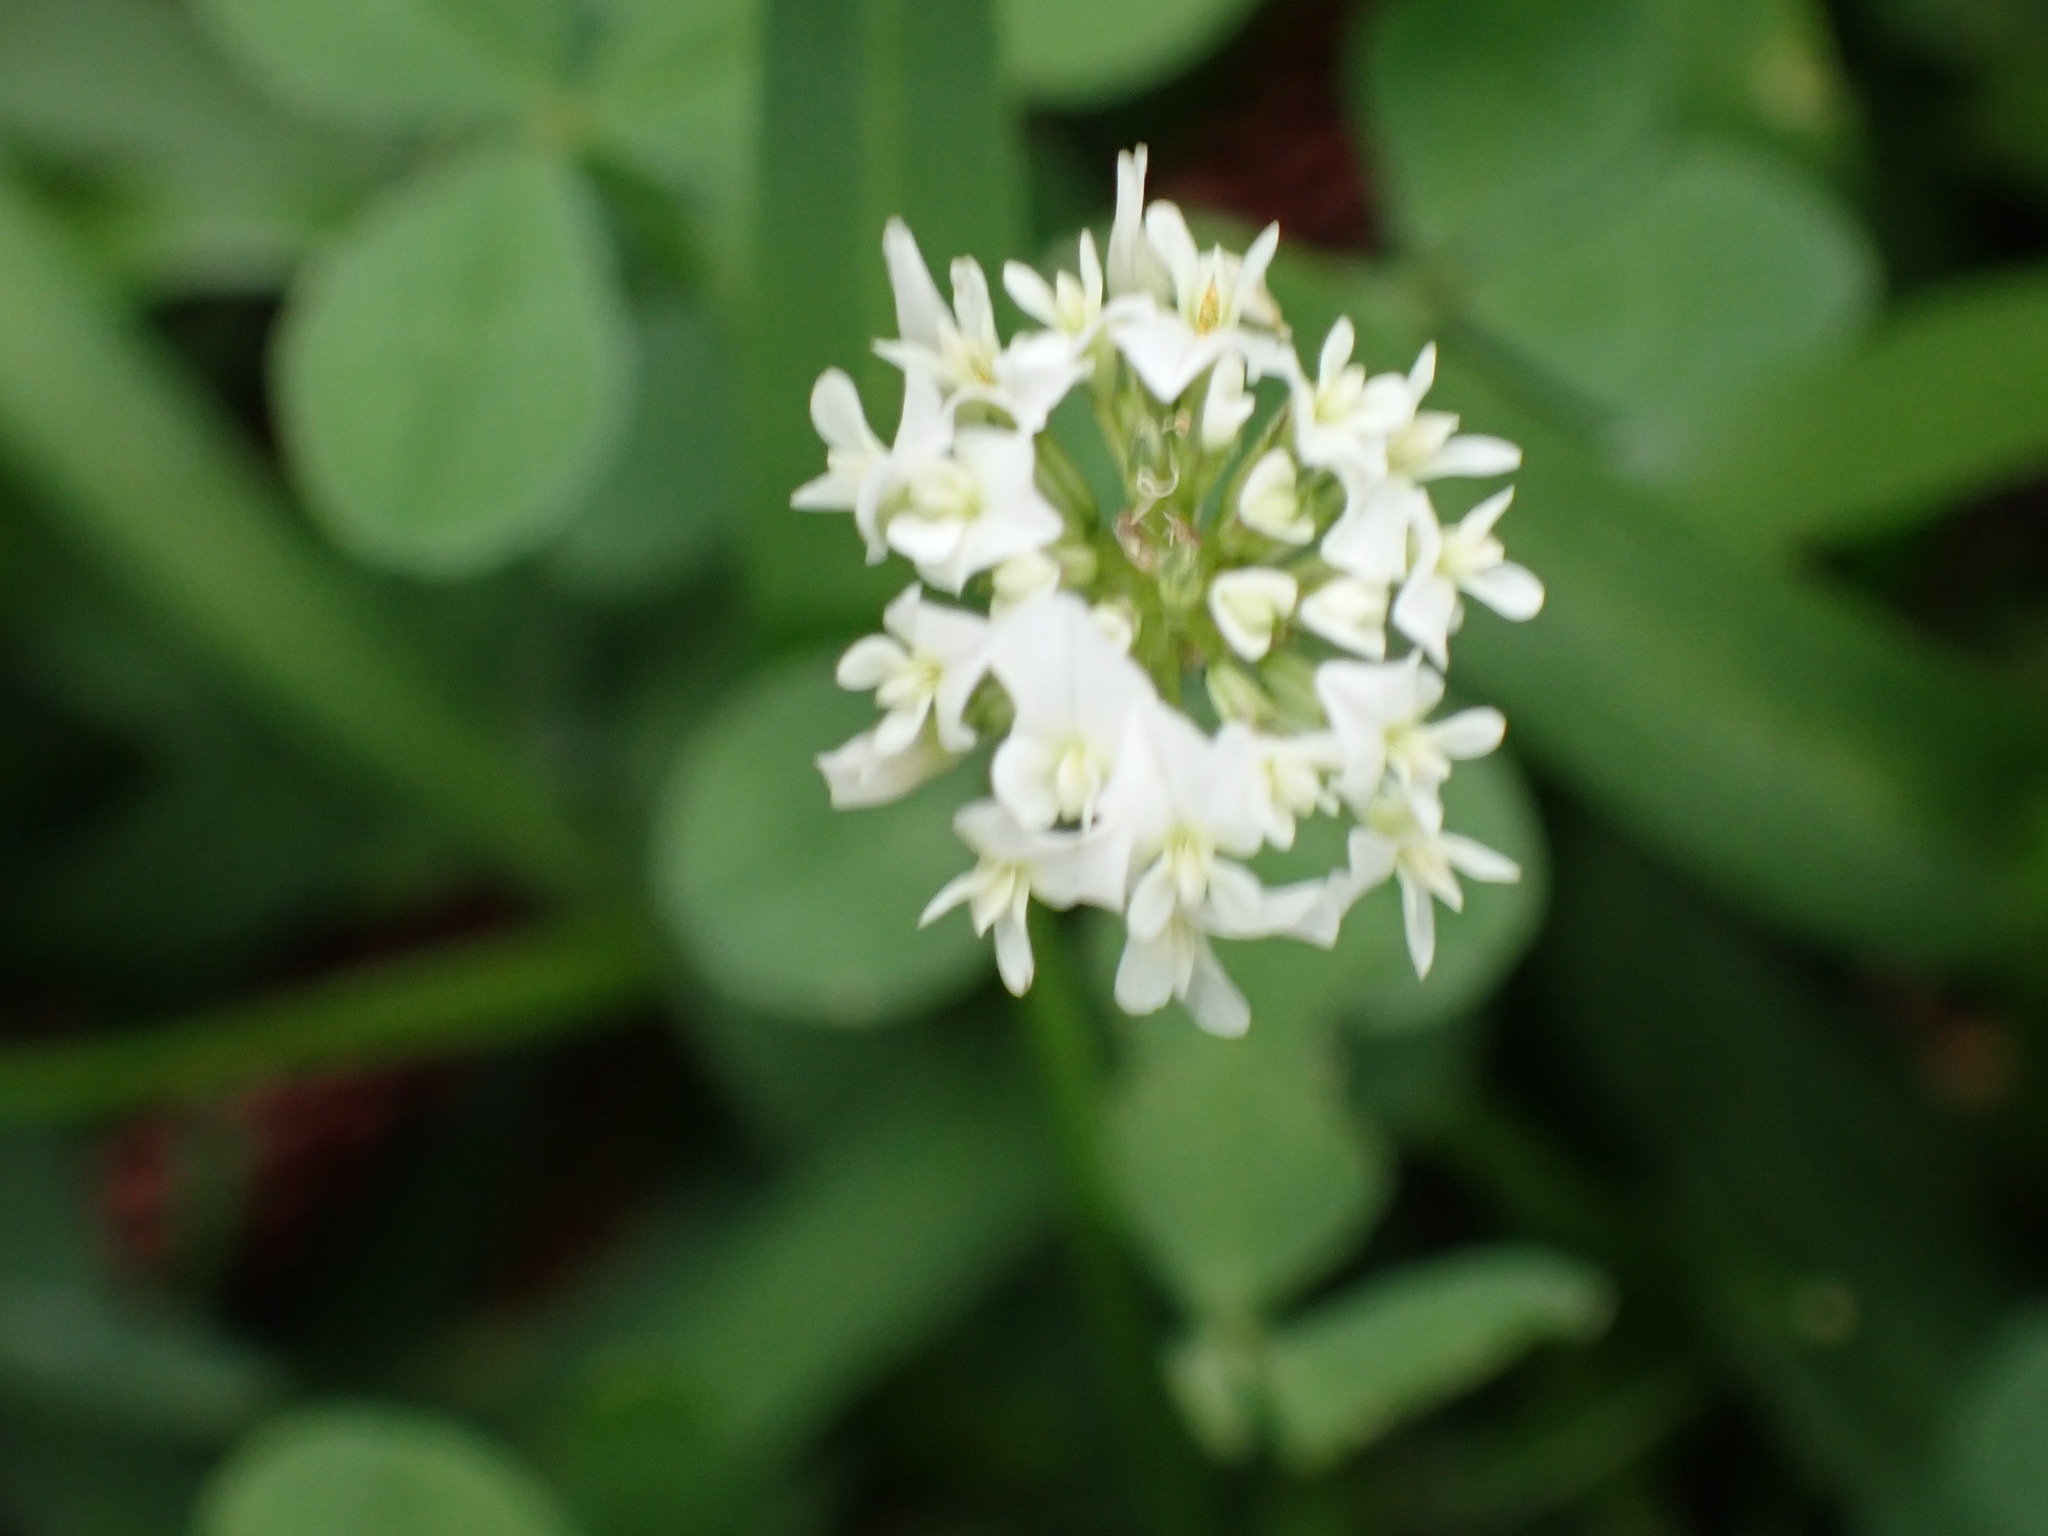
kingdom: Plantae
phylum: Tracheophyta
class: Magnoliopsida
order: Fabales
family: Fabaceae
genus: Trifolium
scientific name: Trifolium repens
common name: White clover
